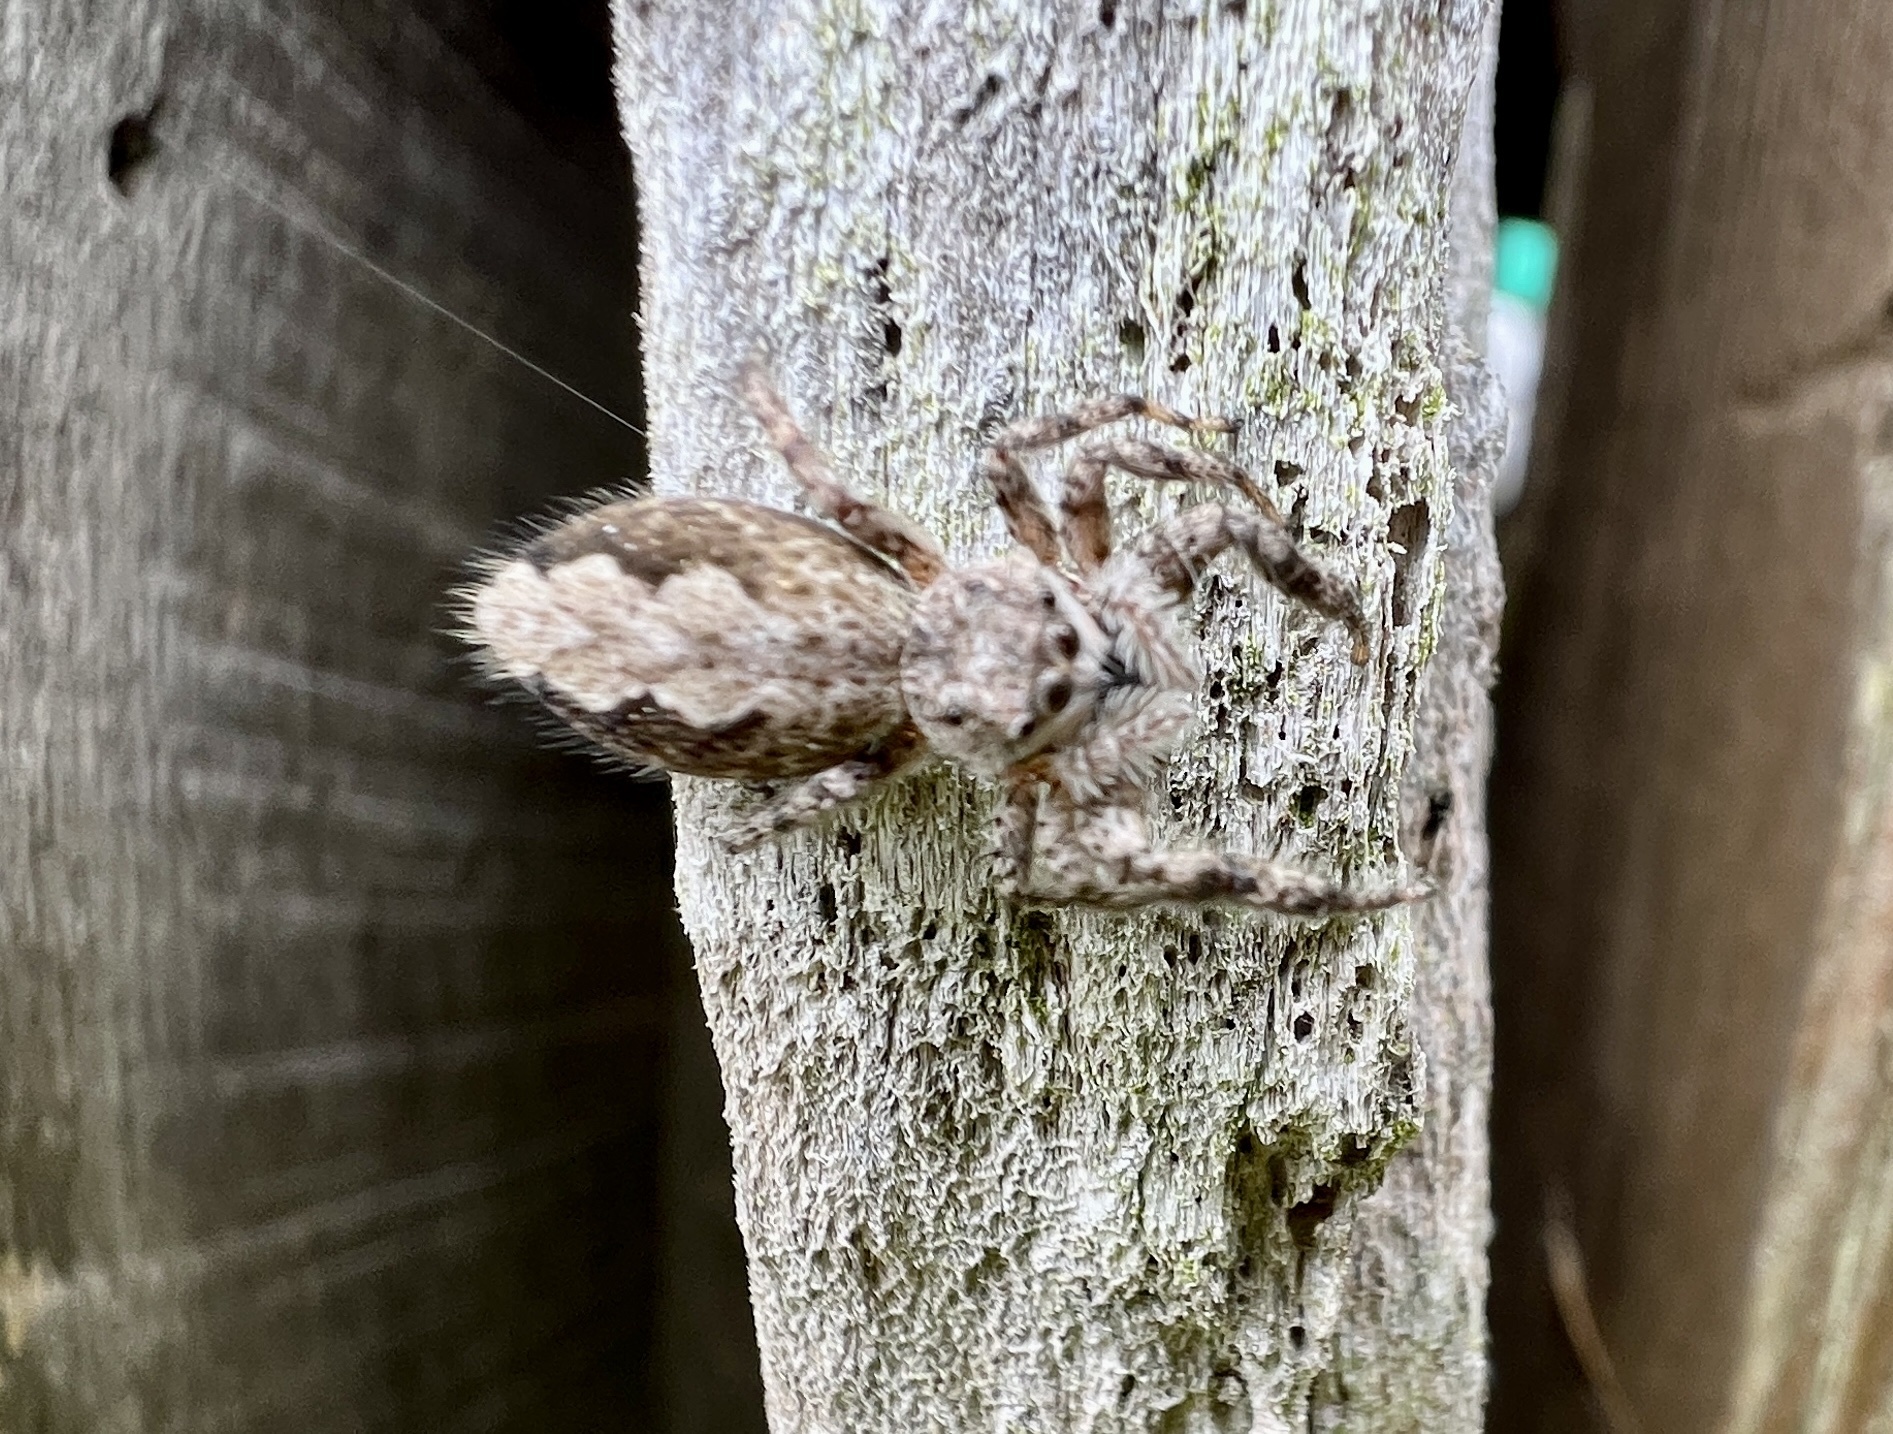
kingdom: Animalia
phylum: Arthropoda
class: Arachnida
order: Araneae
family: Salticidae
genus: Platycryptus
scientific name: Platycryptus undatus
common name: Tan jumping spider
